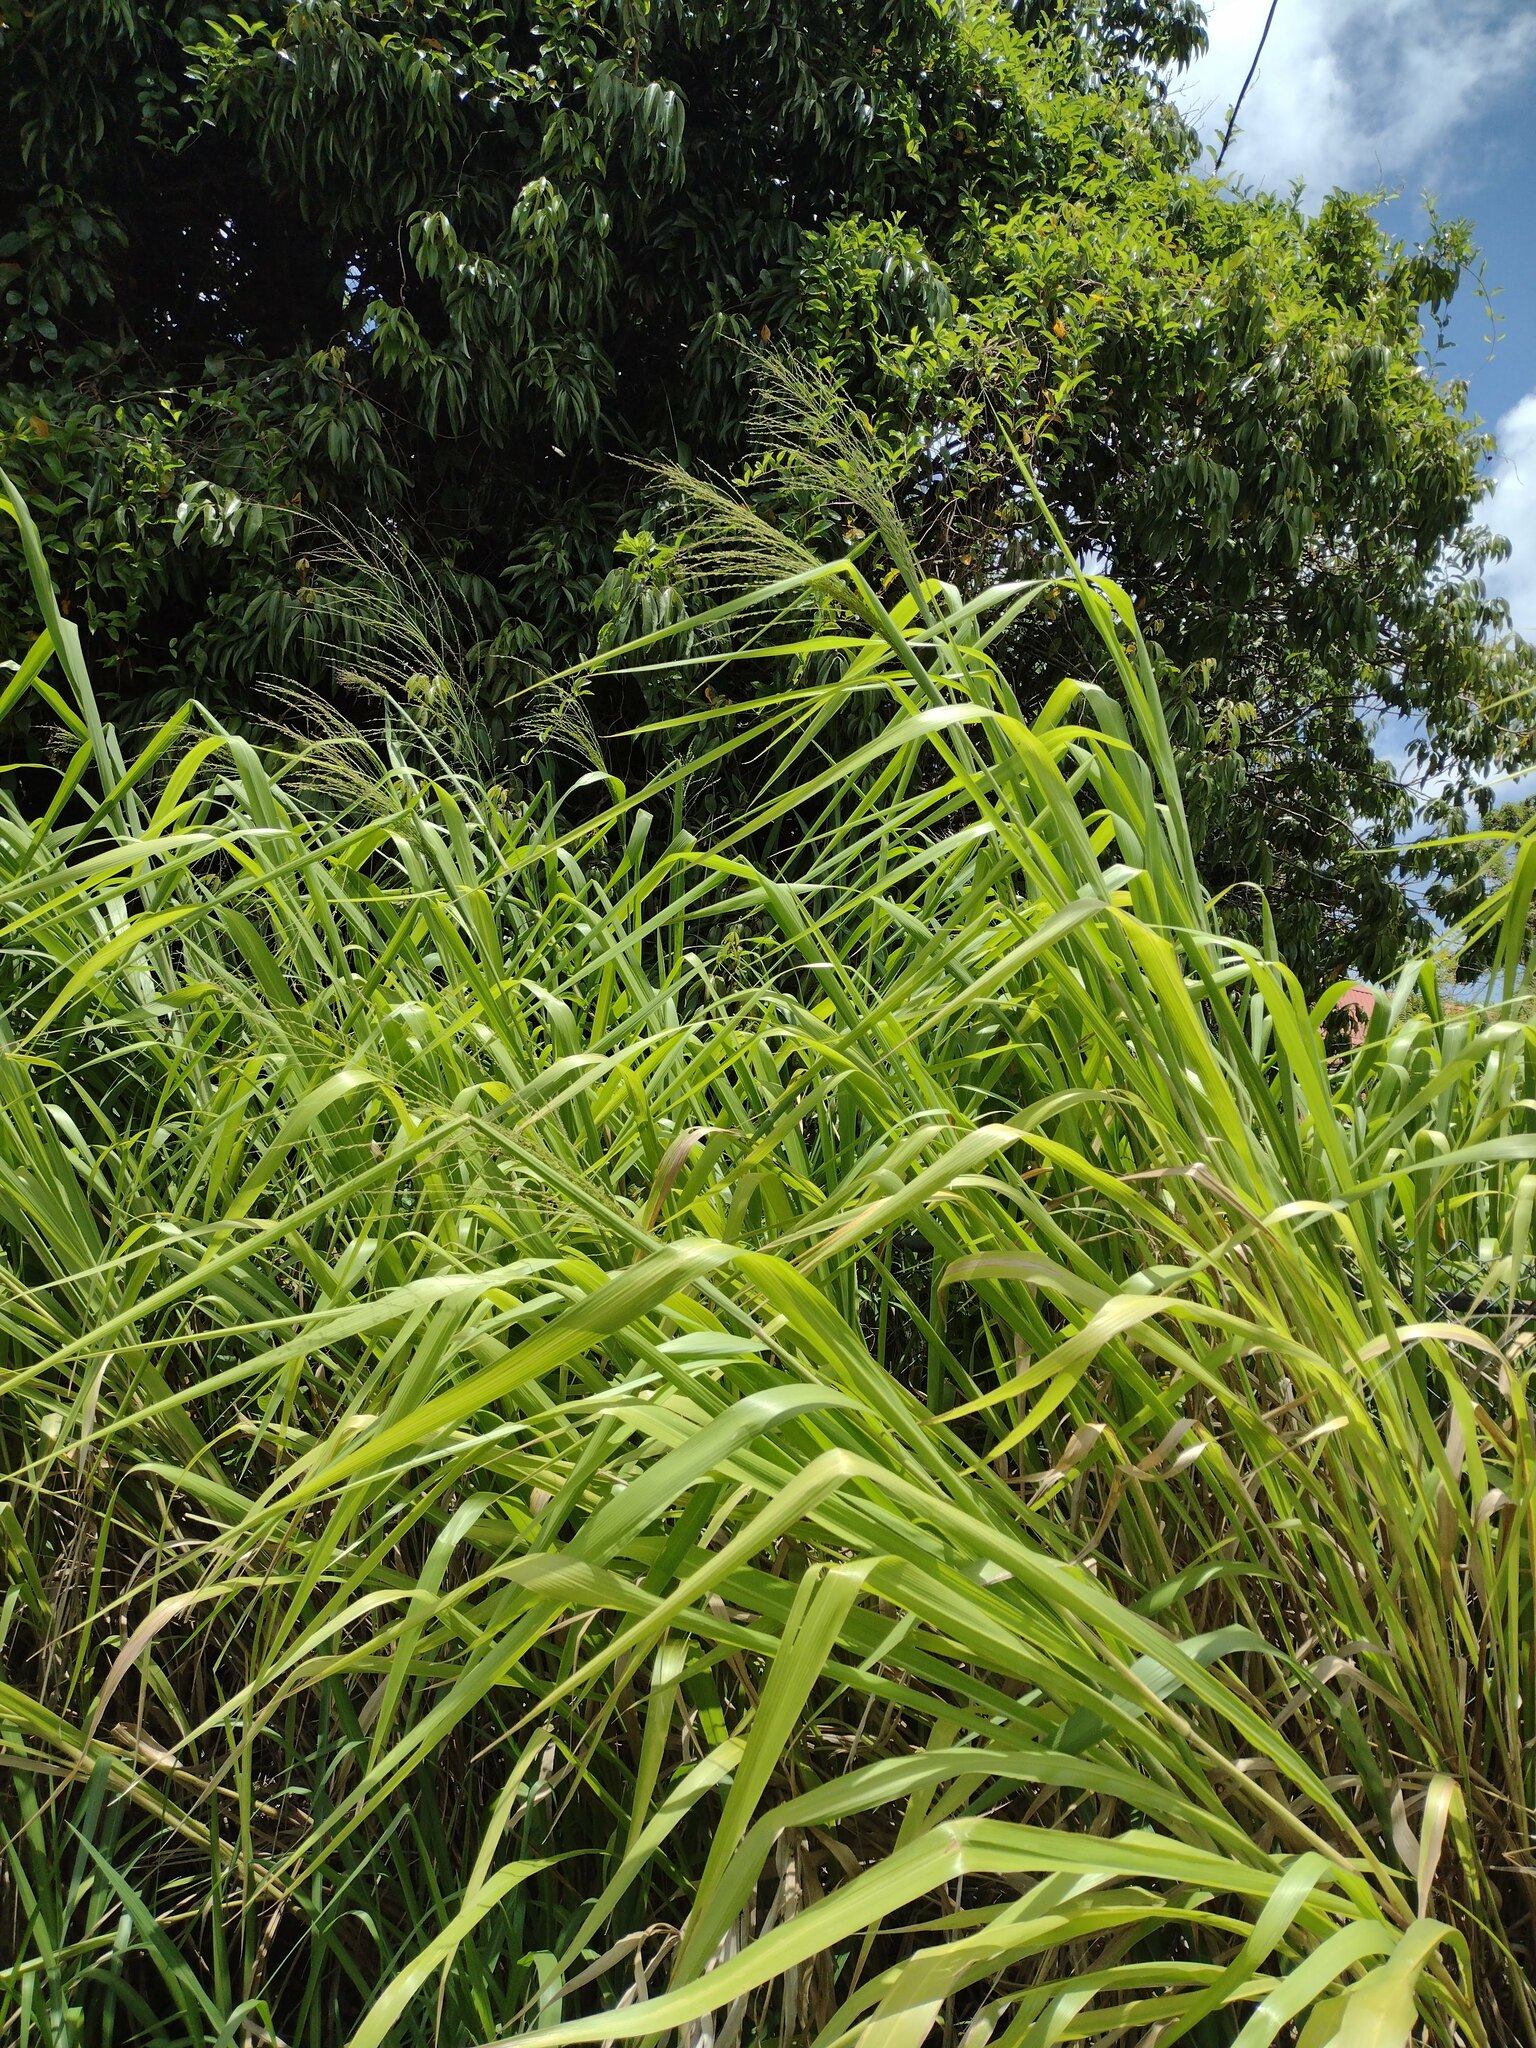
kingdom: Plantae
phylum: Tracheophyta
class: Liliopsida
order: Poales
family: Poaceae
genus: Megathyrsus
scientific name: Megathyrsus maximus
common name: Guineagrass
